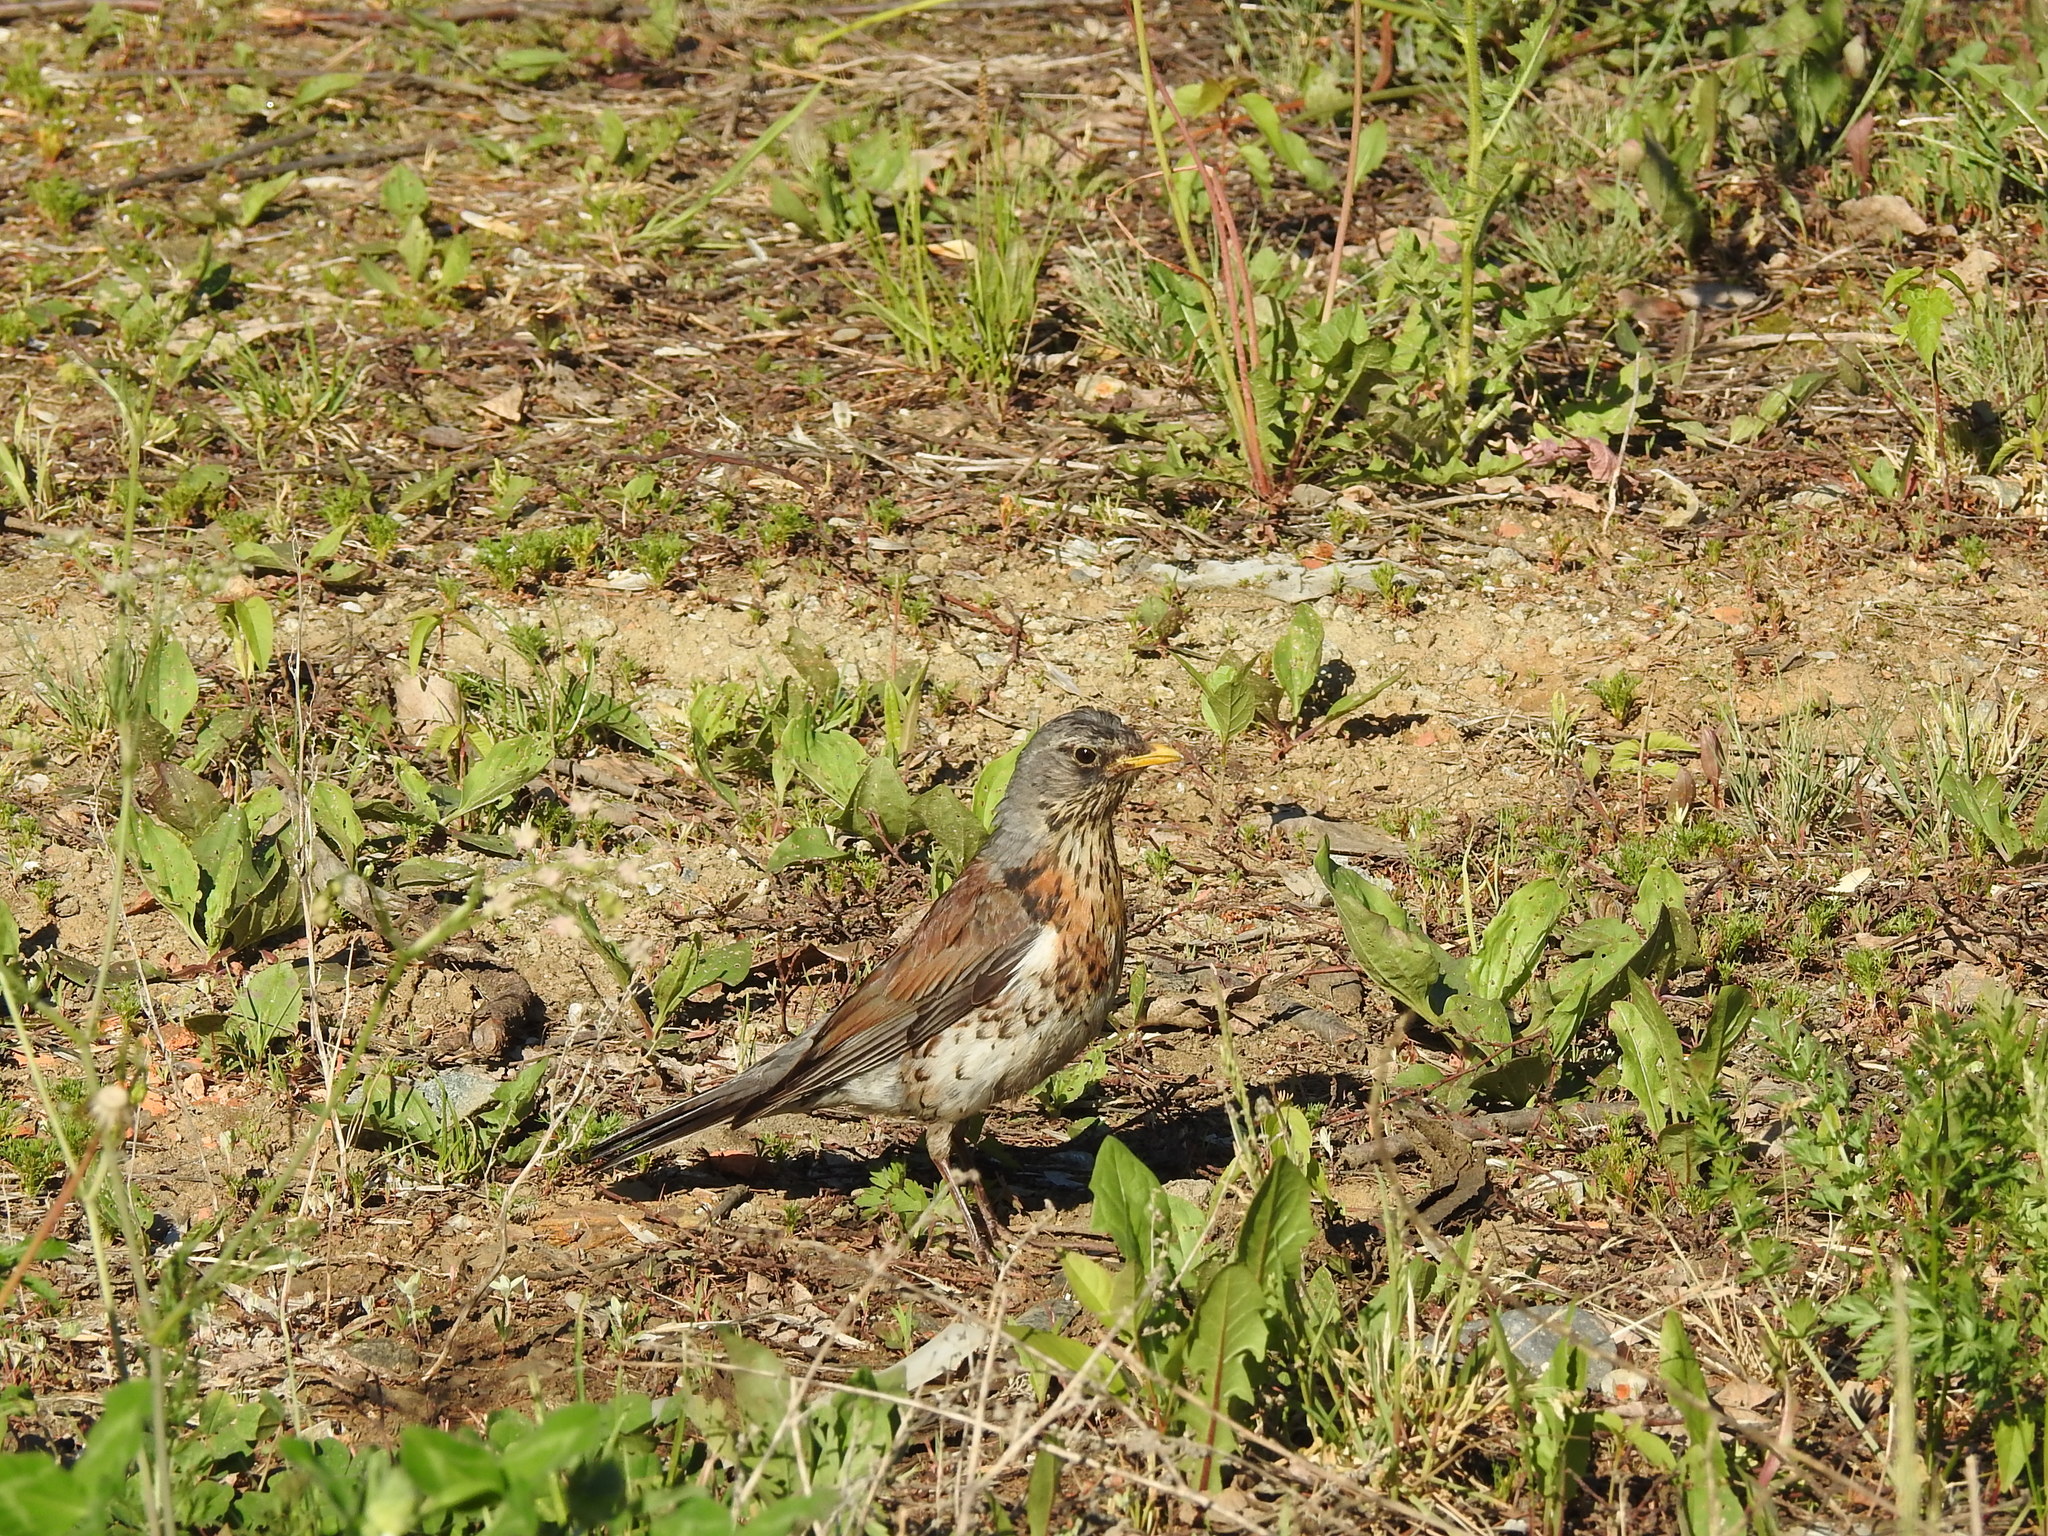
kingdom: Animalia
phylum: Chordata
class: Aves
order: Passeriformes
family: Turdidae
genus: Turdus
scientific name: Turdus pilaris
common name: Fieldfare
